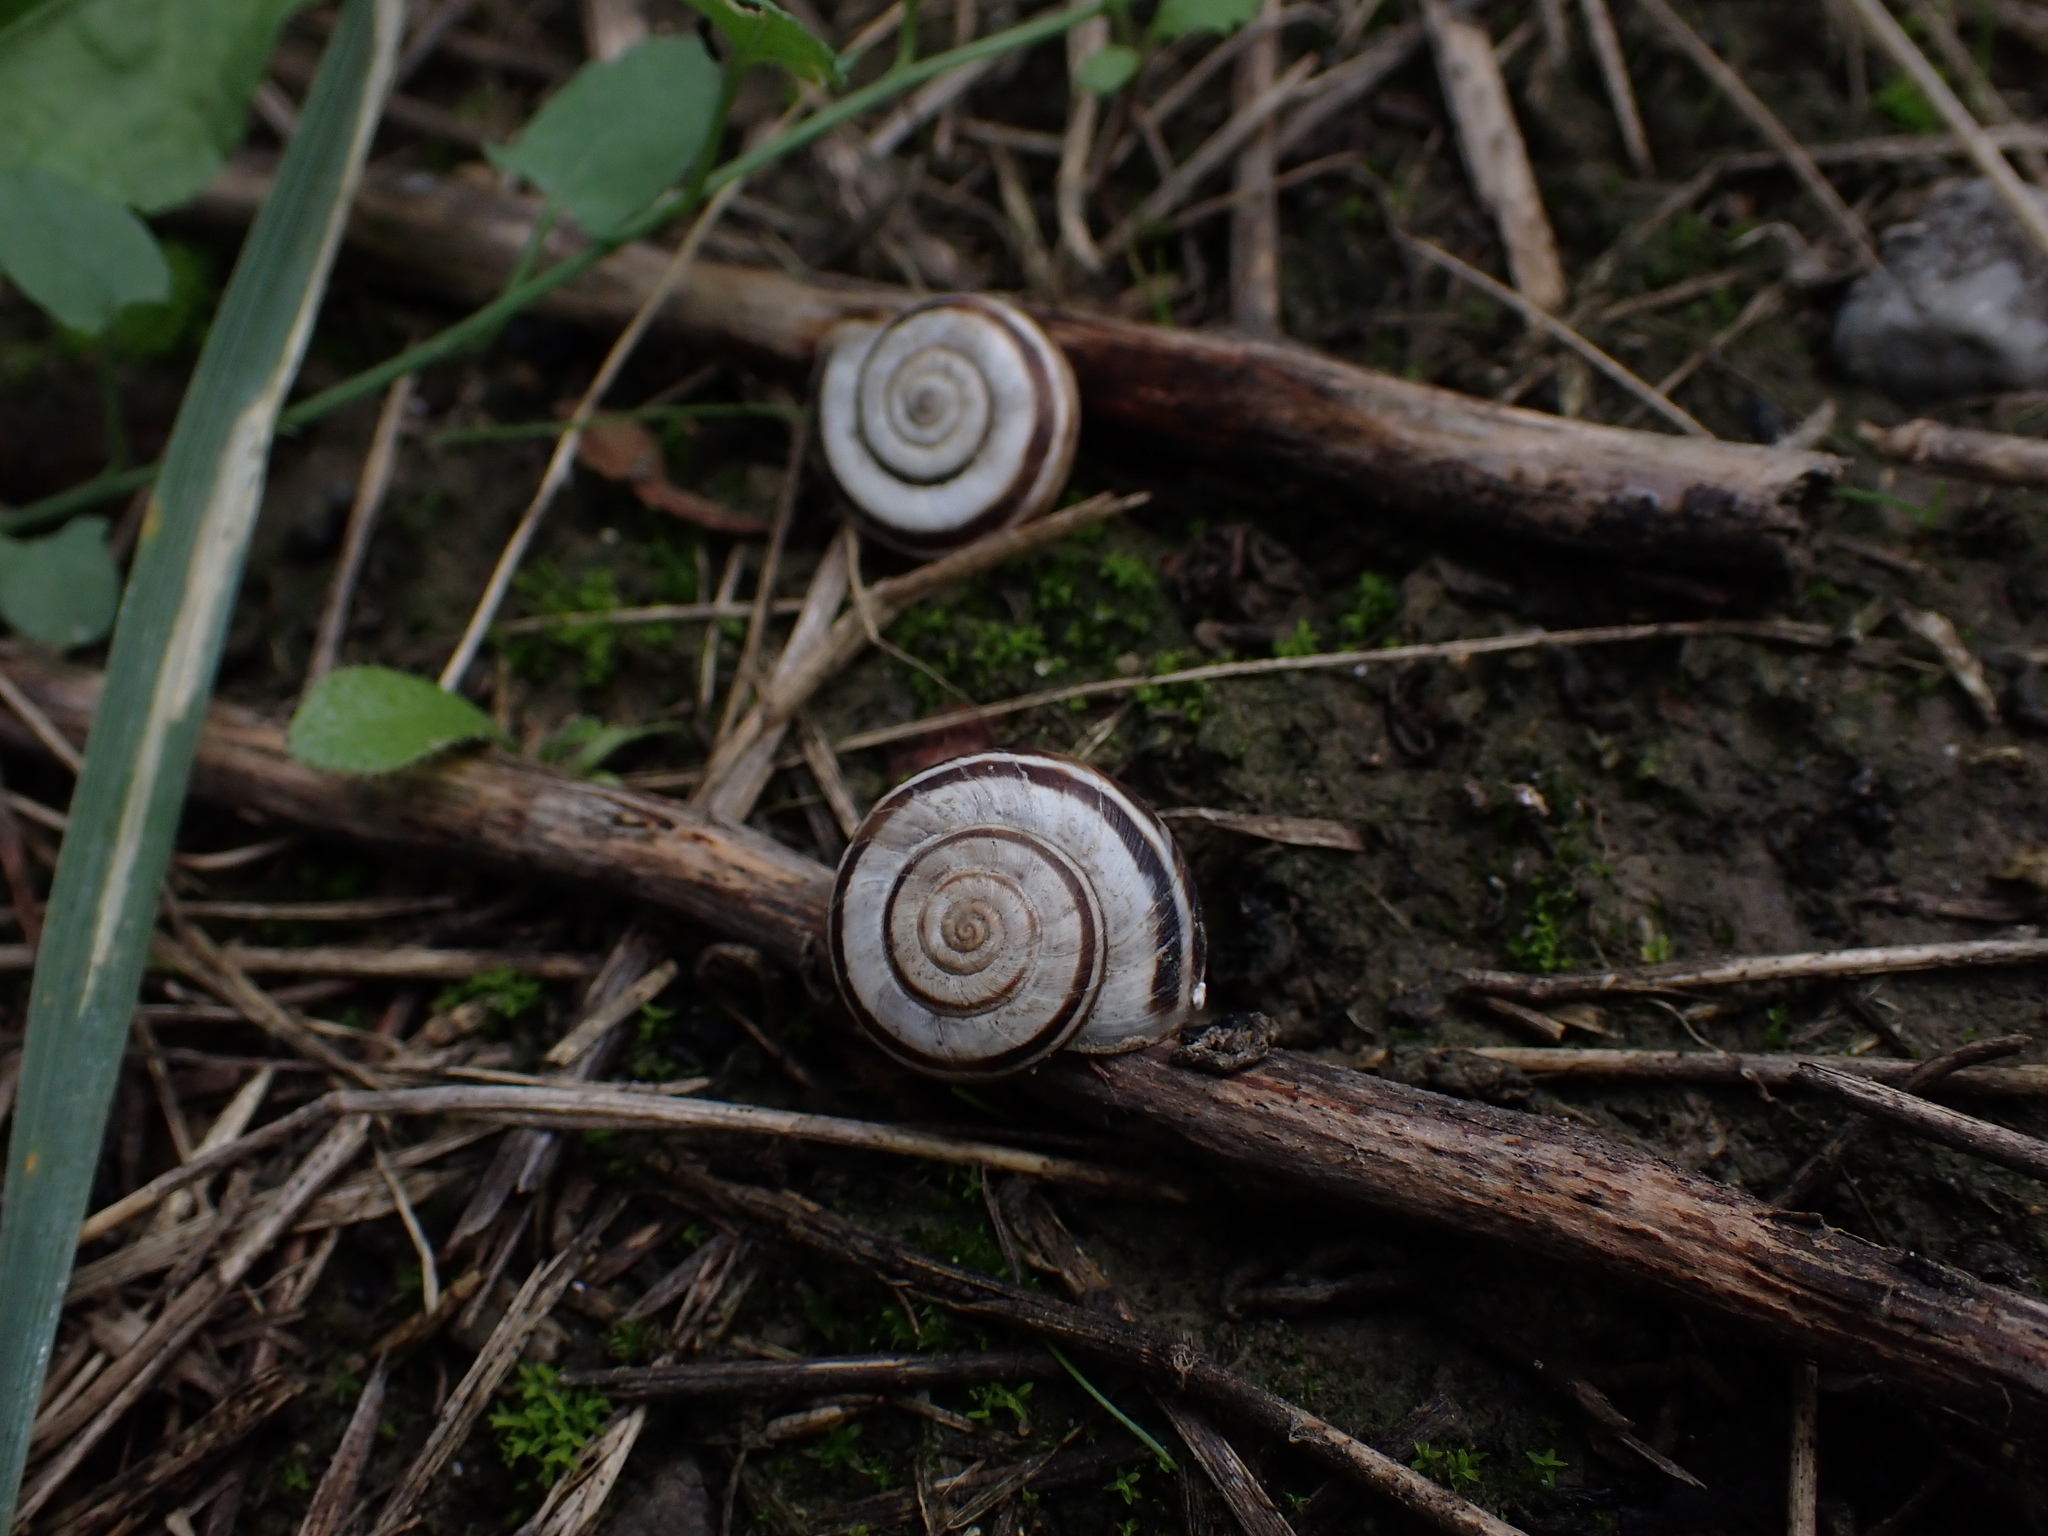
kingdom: Animalia
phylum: Mollusca
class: Gastropoda
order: Stylommatophora
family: Geomitridae
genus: Xerolenta
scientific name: Xerolenta obvia
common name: White heath snail
